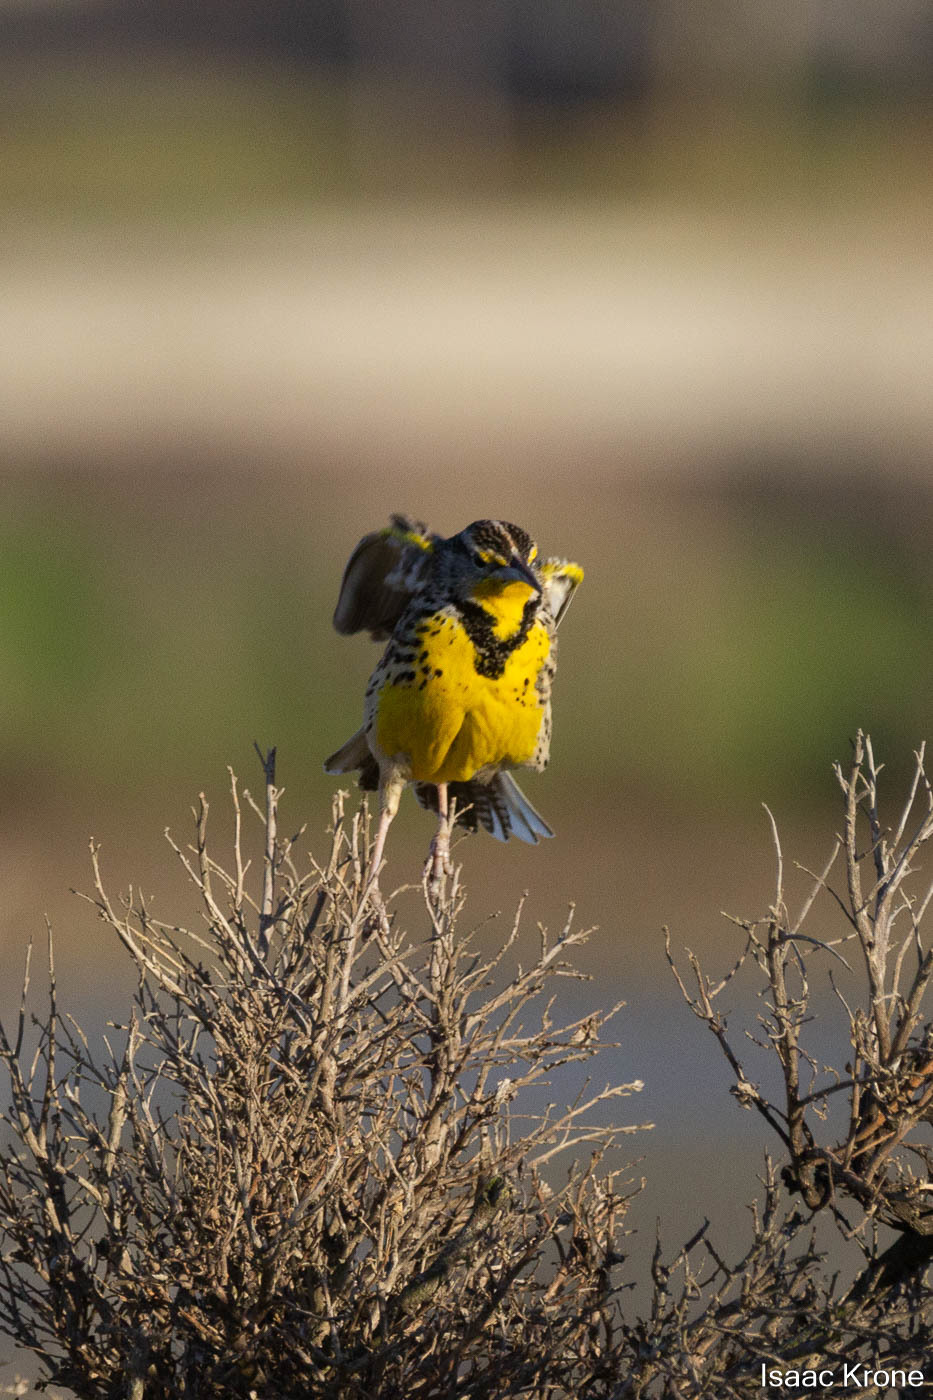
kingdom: Animalia
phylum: Chordata
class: Aves
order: Passeriformes
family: Icteridae
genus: Sturnella
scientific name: Sturnella neglecta
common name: Western meadowlark
